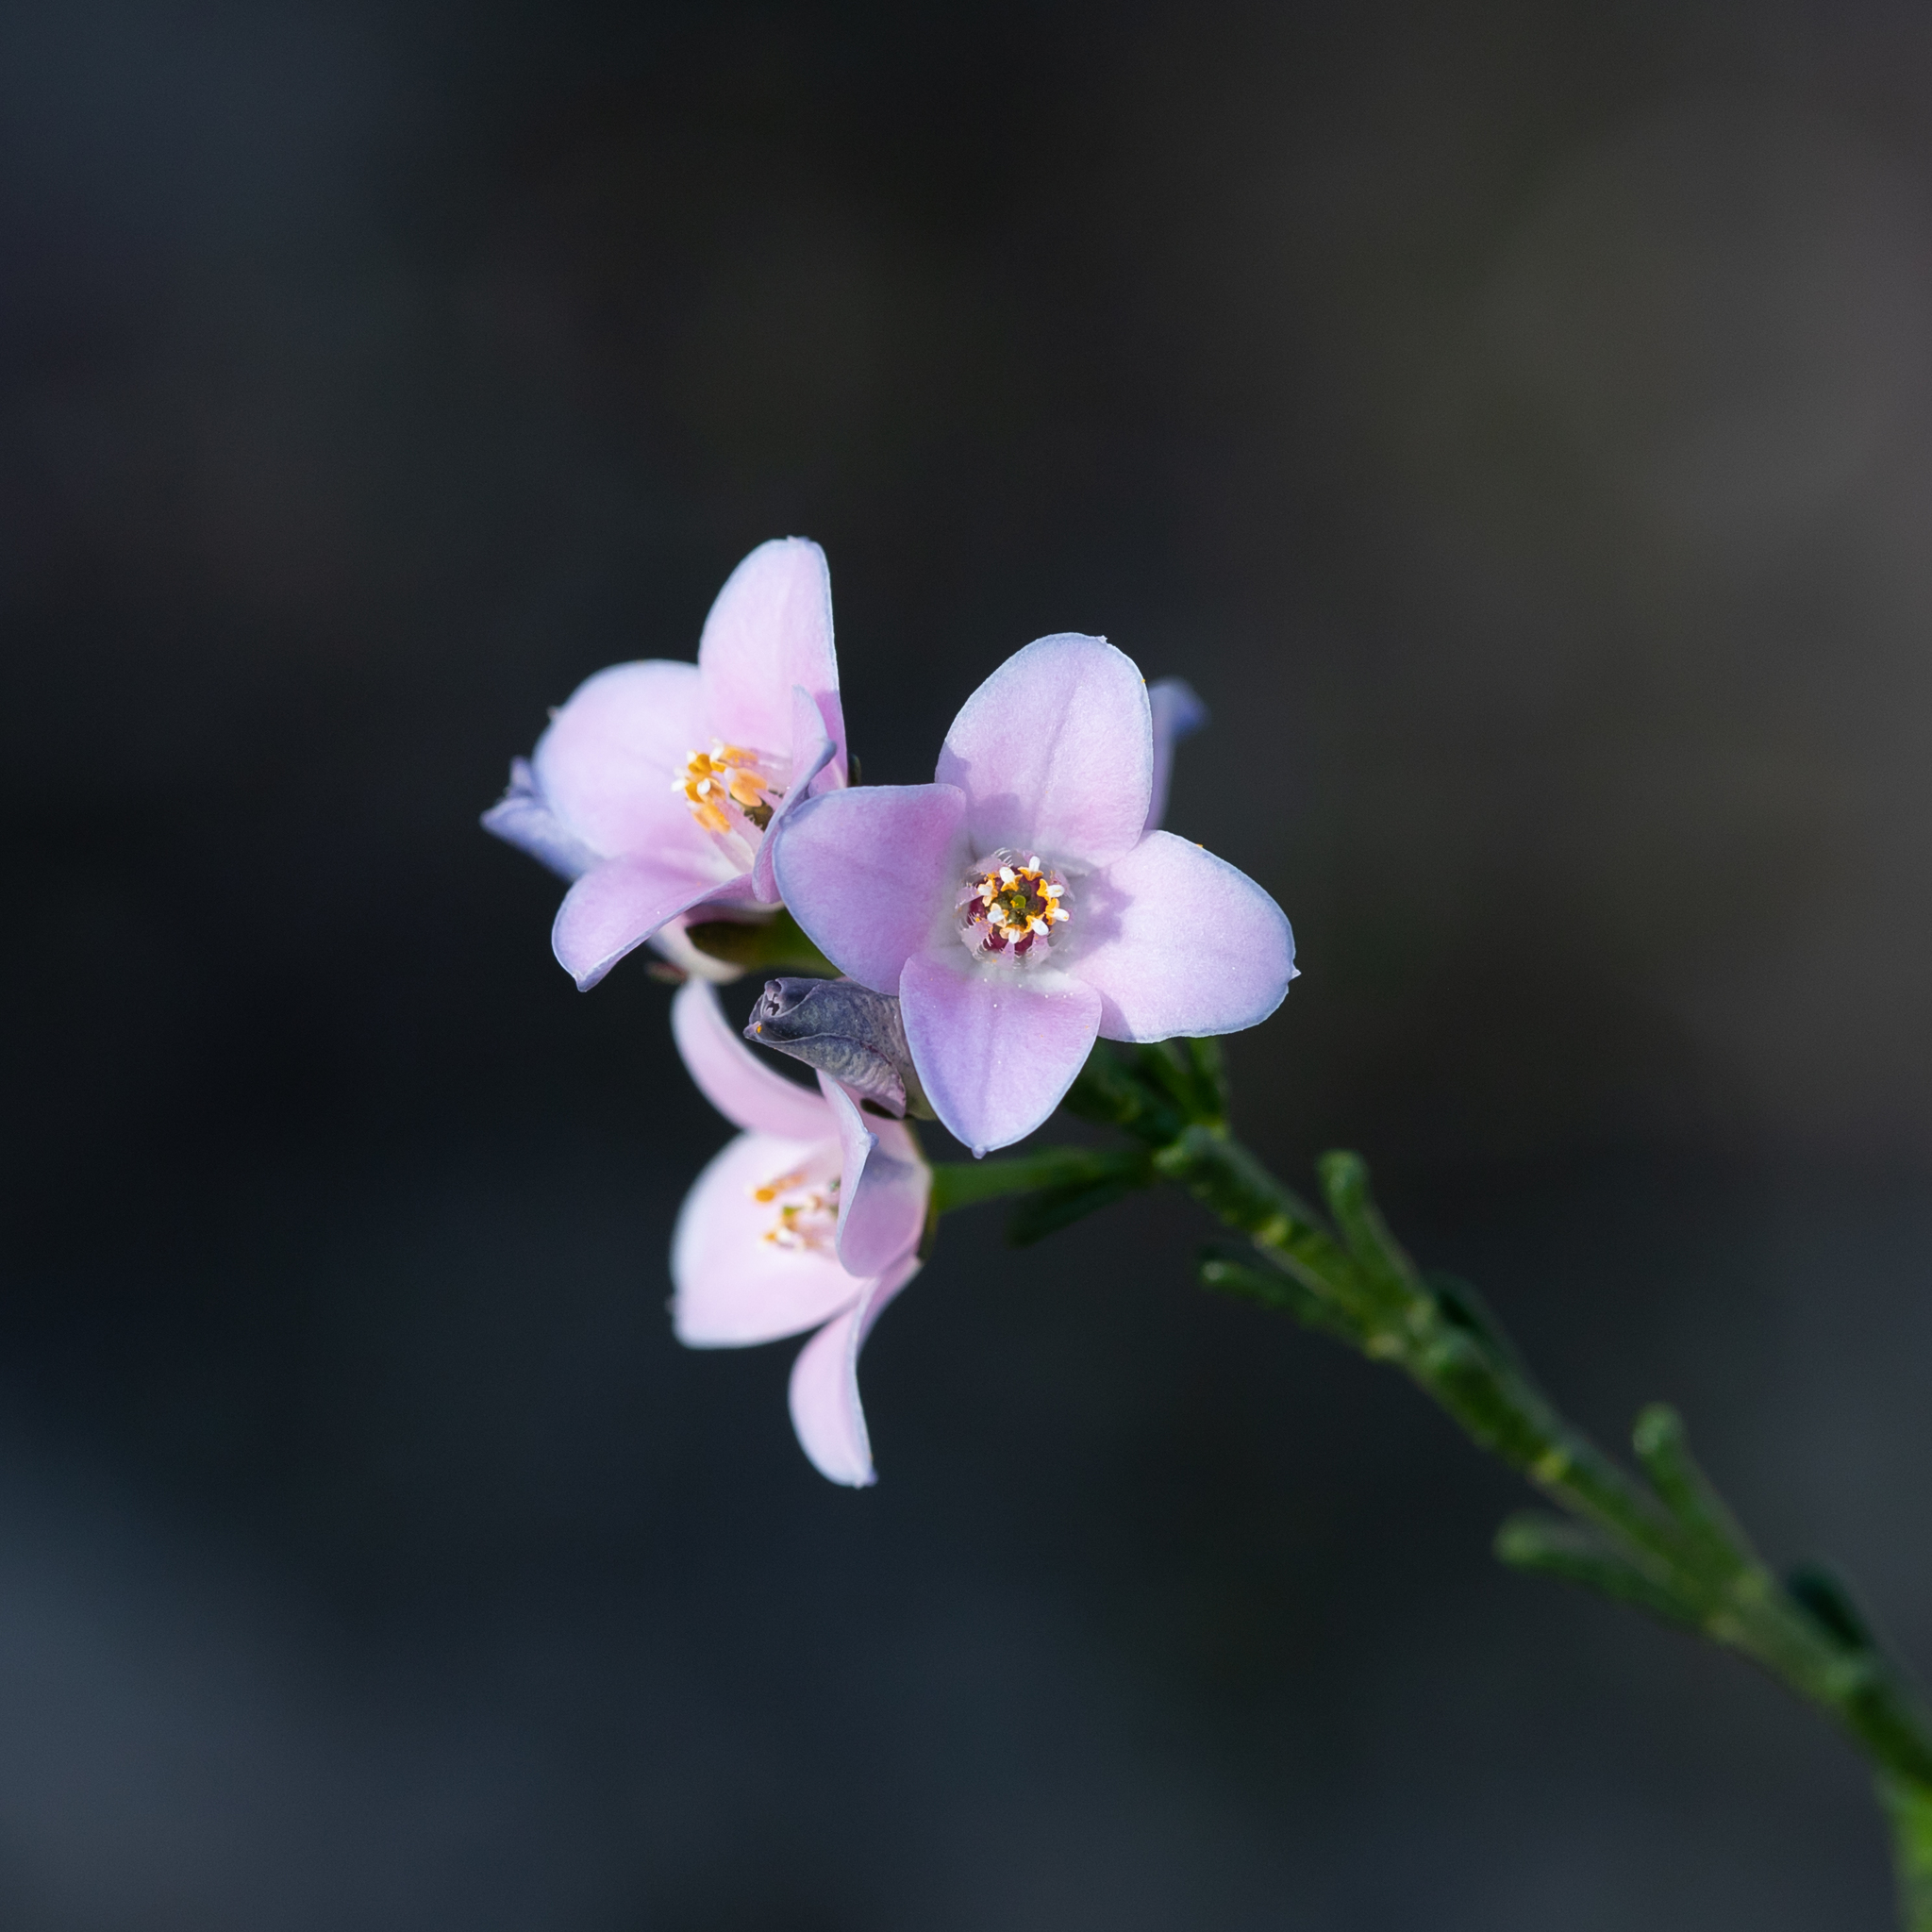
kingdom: Plantae
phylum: Tracheophyta
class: Magnoliopsida
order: Sapindales
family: Rutaceae
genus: Cyanothamnus
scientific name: Cyanothamnus coerulescens
